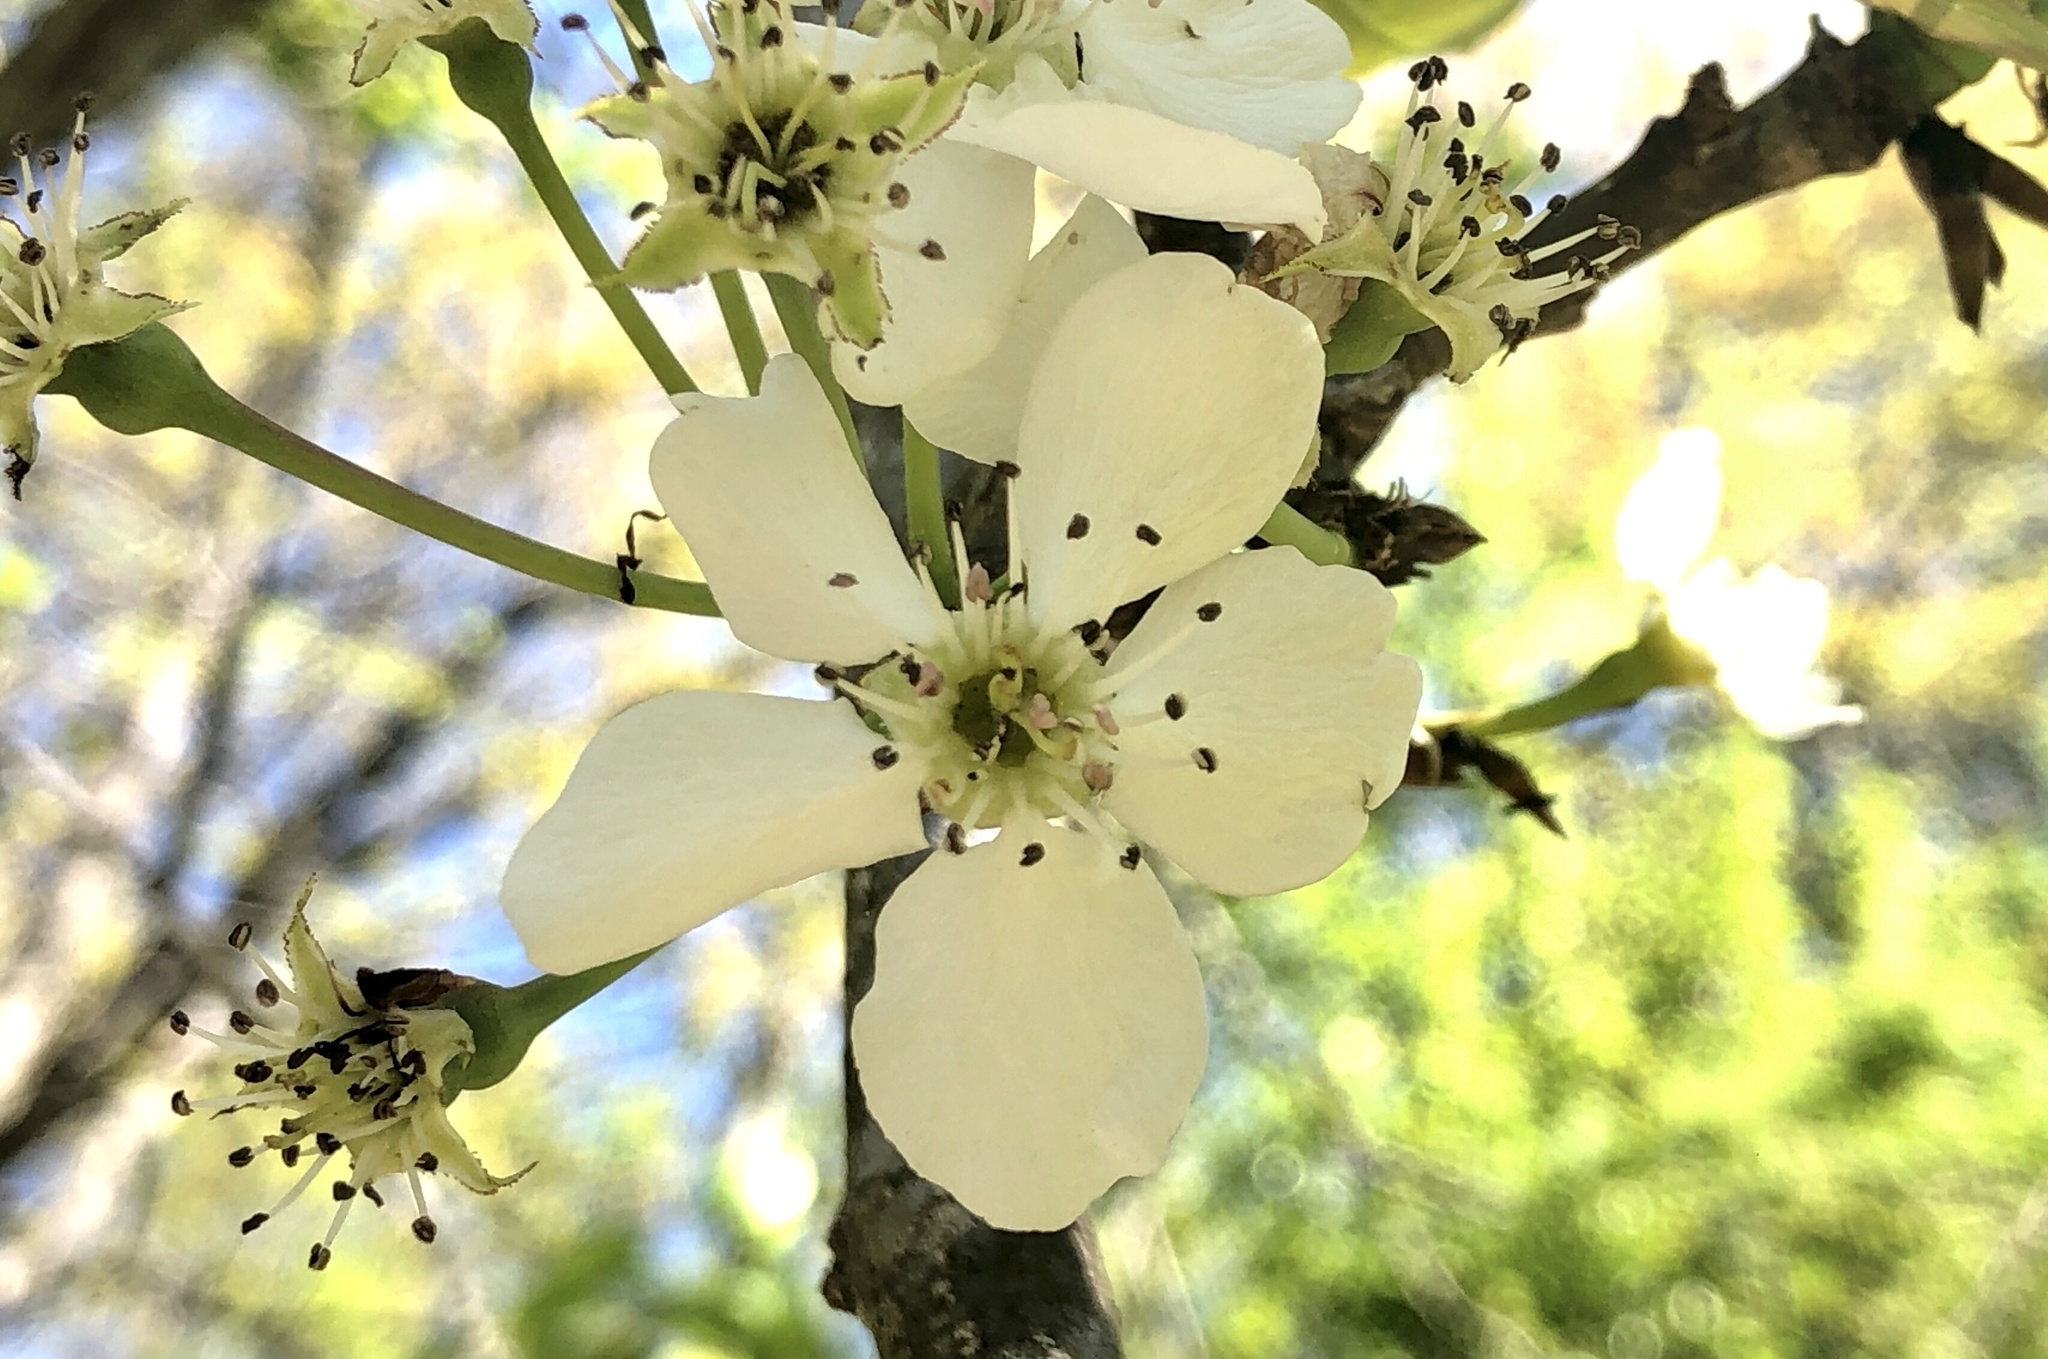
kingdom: Plantae
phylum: Tracheophyta
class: Magnoliopsida
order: Rosales
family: Rosaceae
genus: Pyrus
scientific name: Pyrus calleryana
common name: Callery pear
